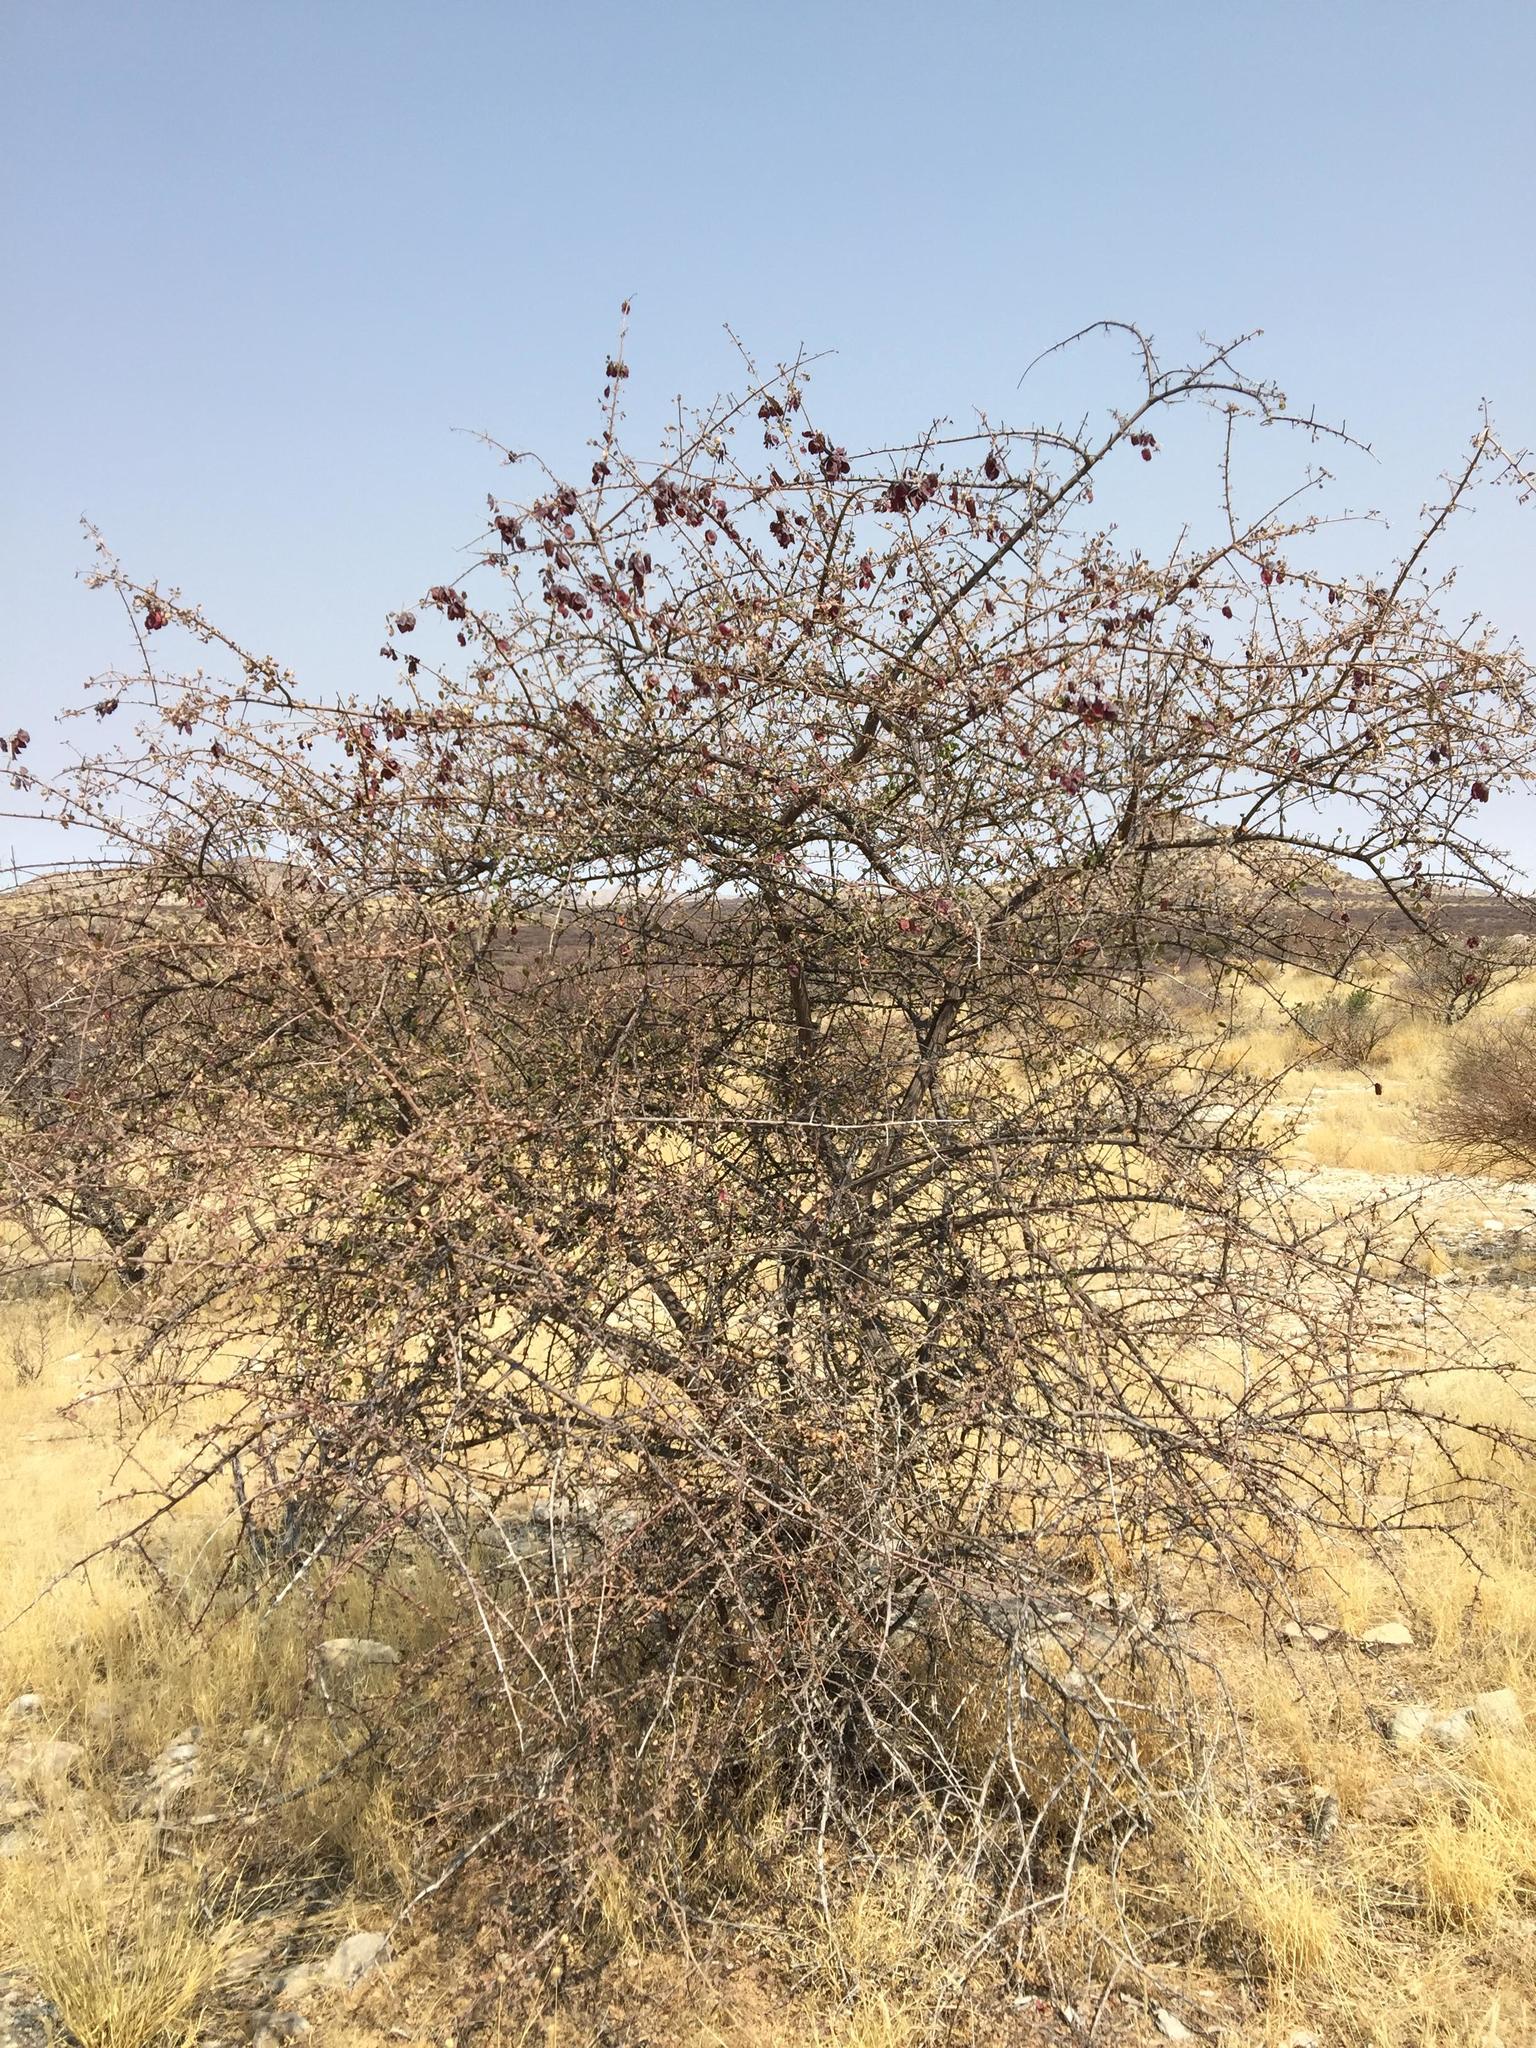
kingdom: Plantae
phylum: Tracheophyta
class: Magnoliopsida
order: Myrtales
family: Combretaceae
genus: Terminalia
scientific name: Terminalia prunioides
